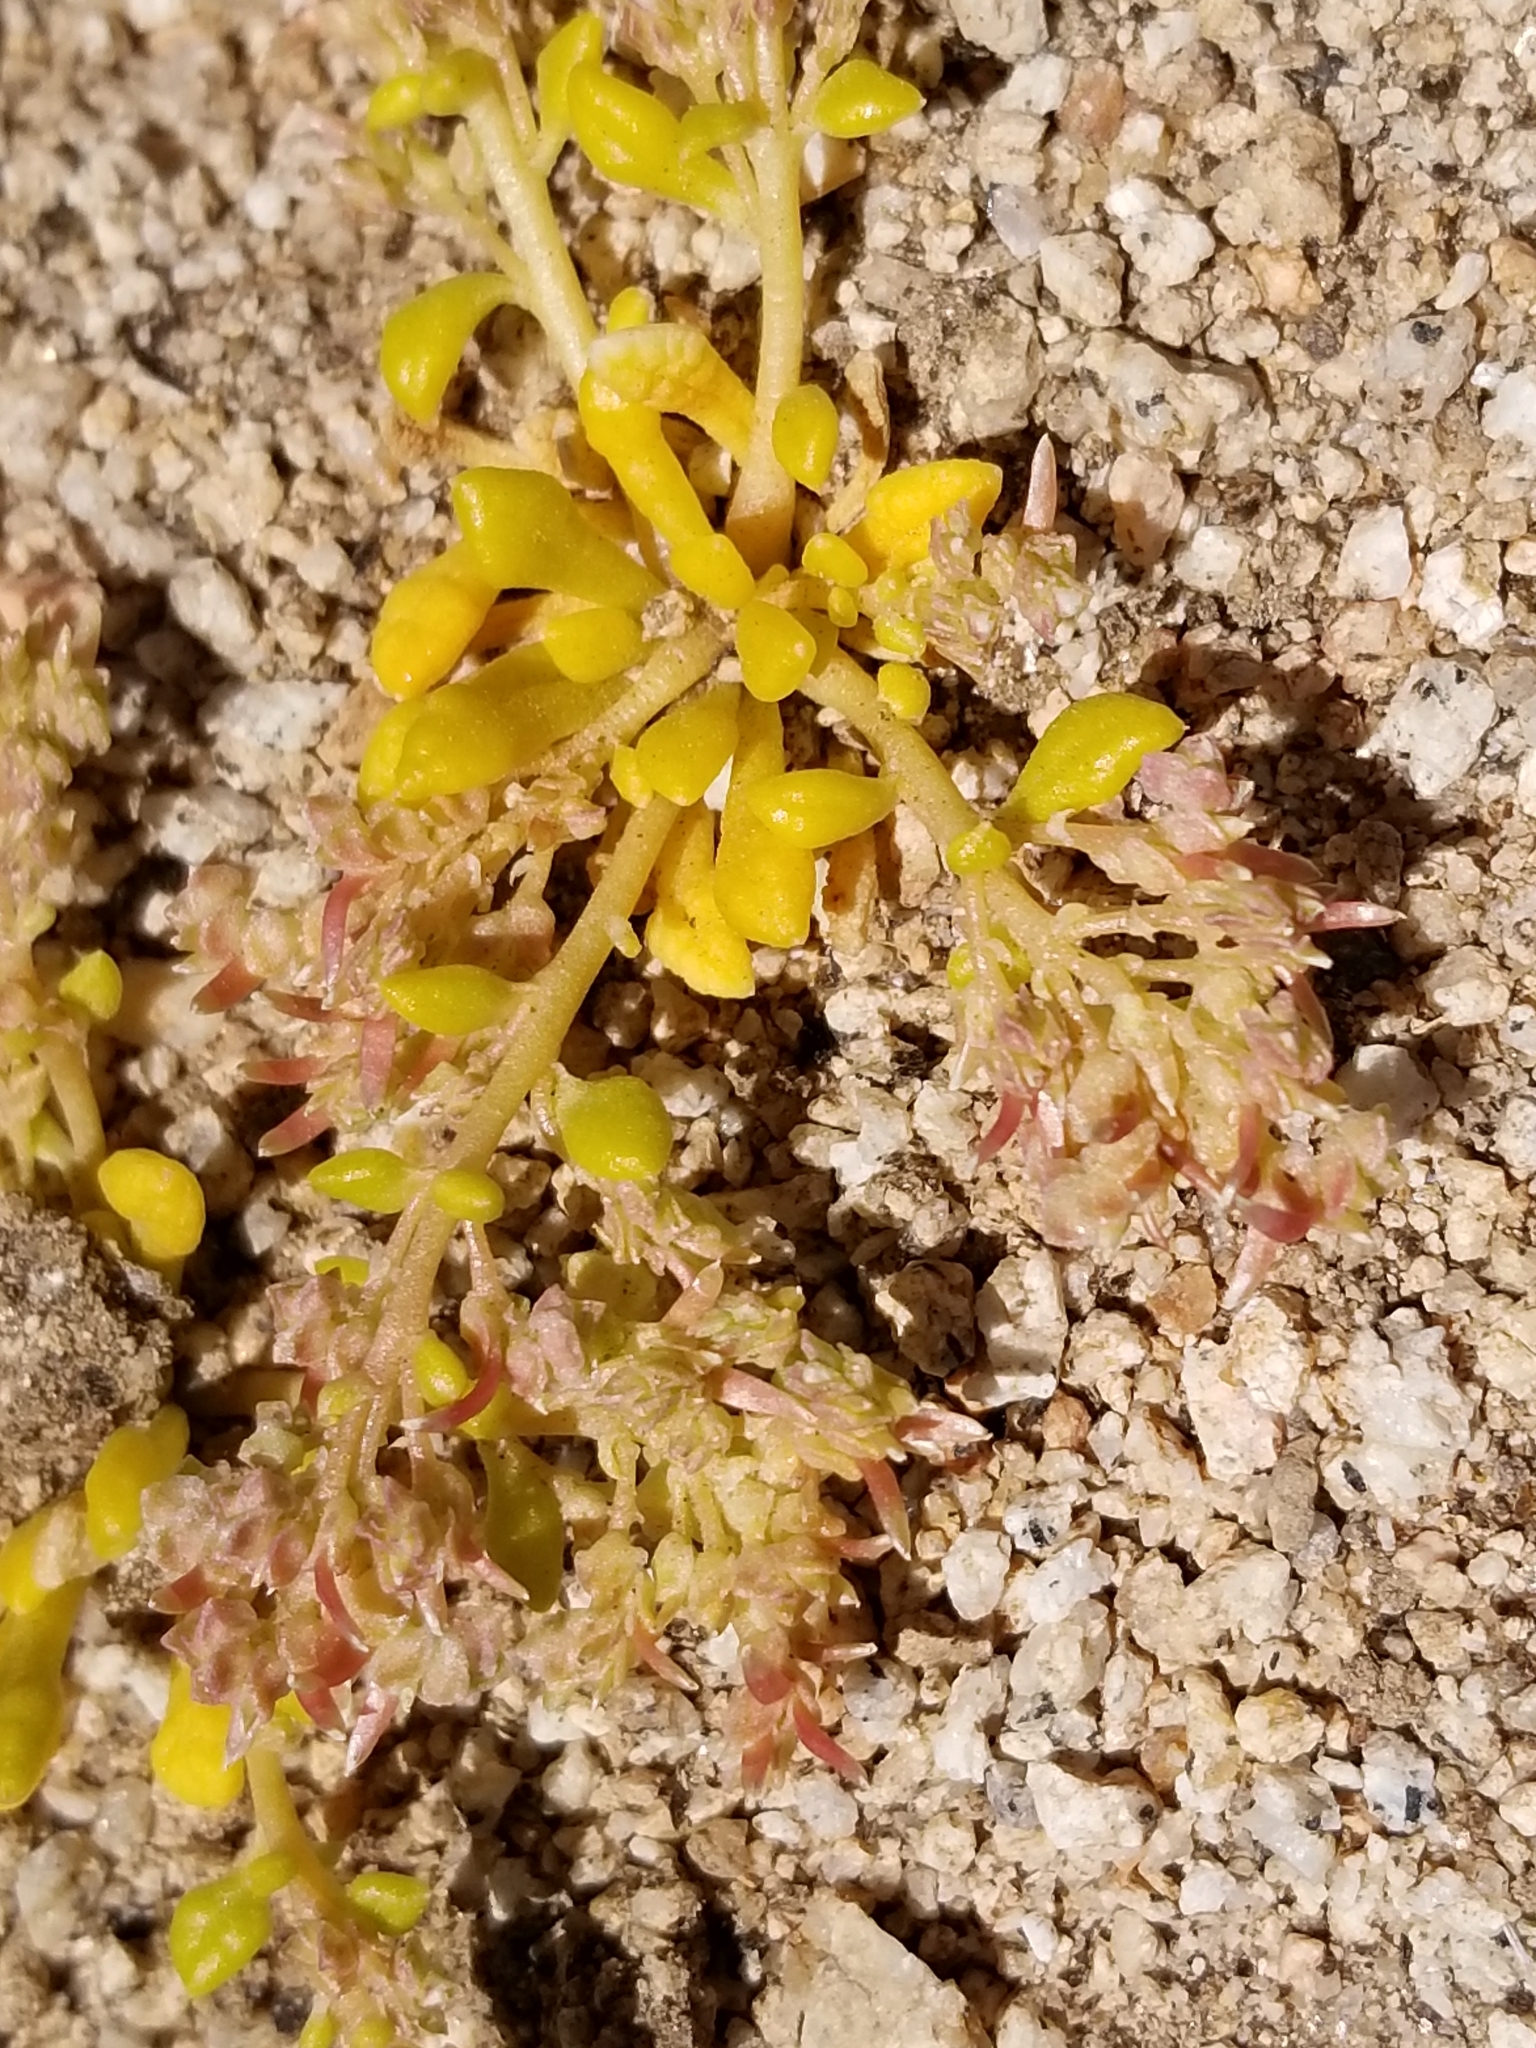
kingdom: Plantae
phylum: Tracheophyta
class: Magnoliopsida
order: Caryophyllales
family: Montiaceae
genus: Calyptridium
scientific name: Calyptridium monandrum
